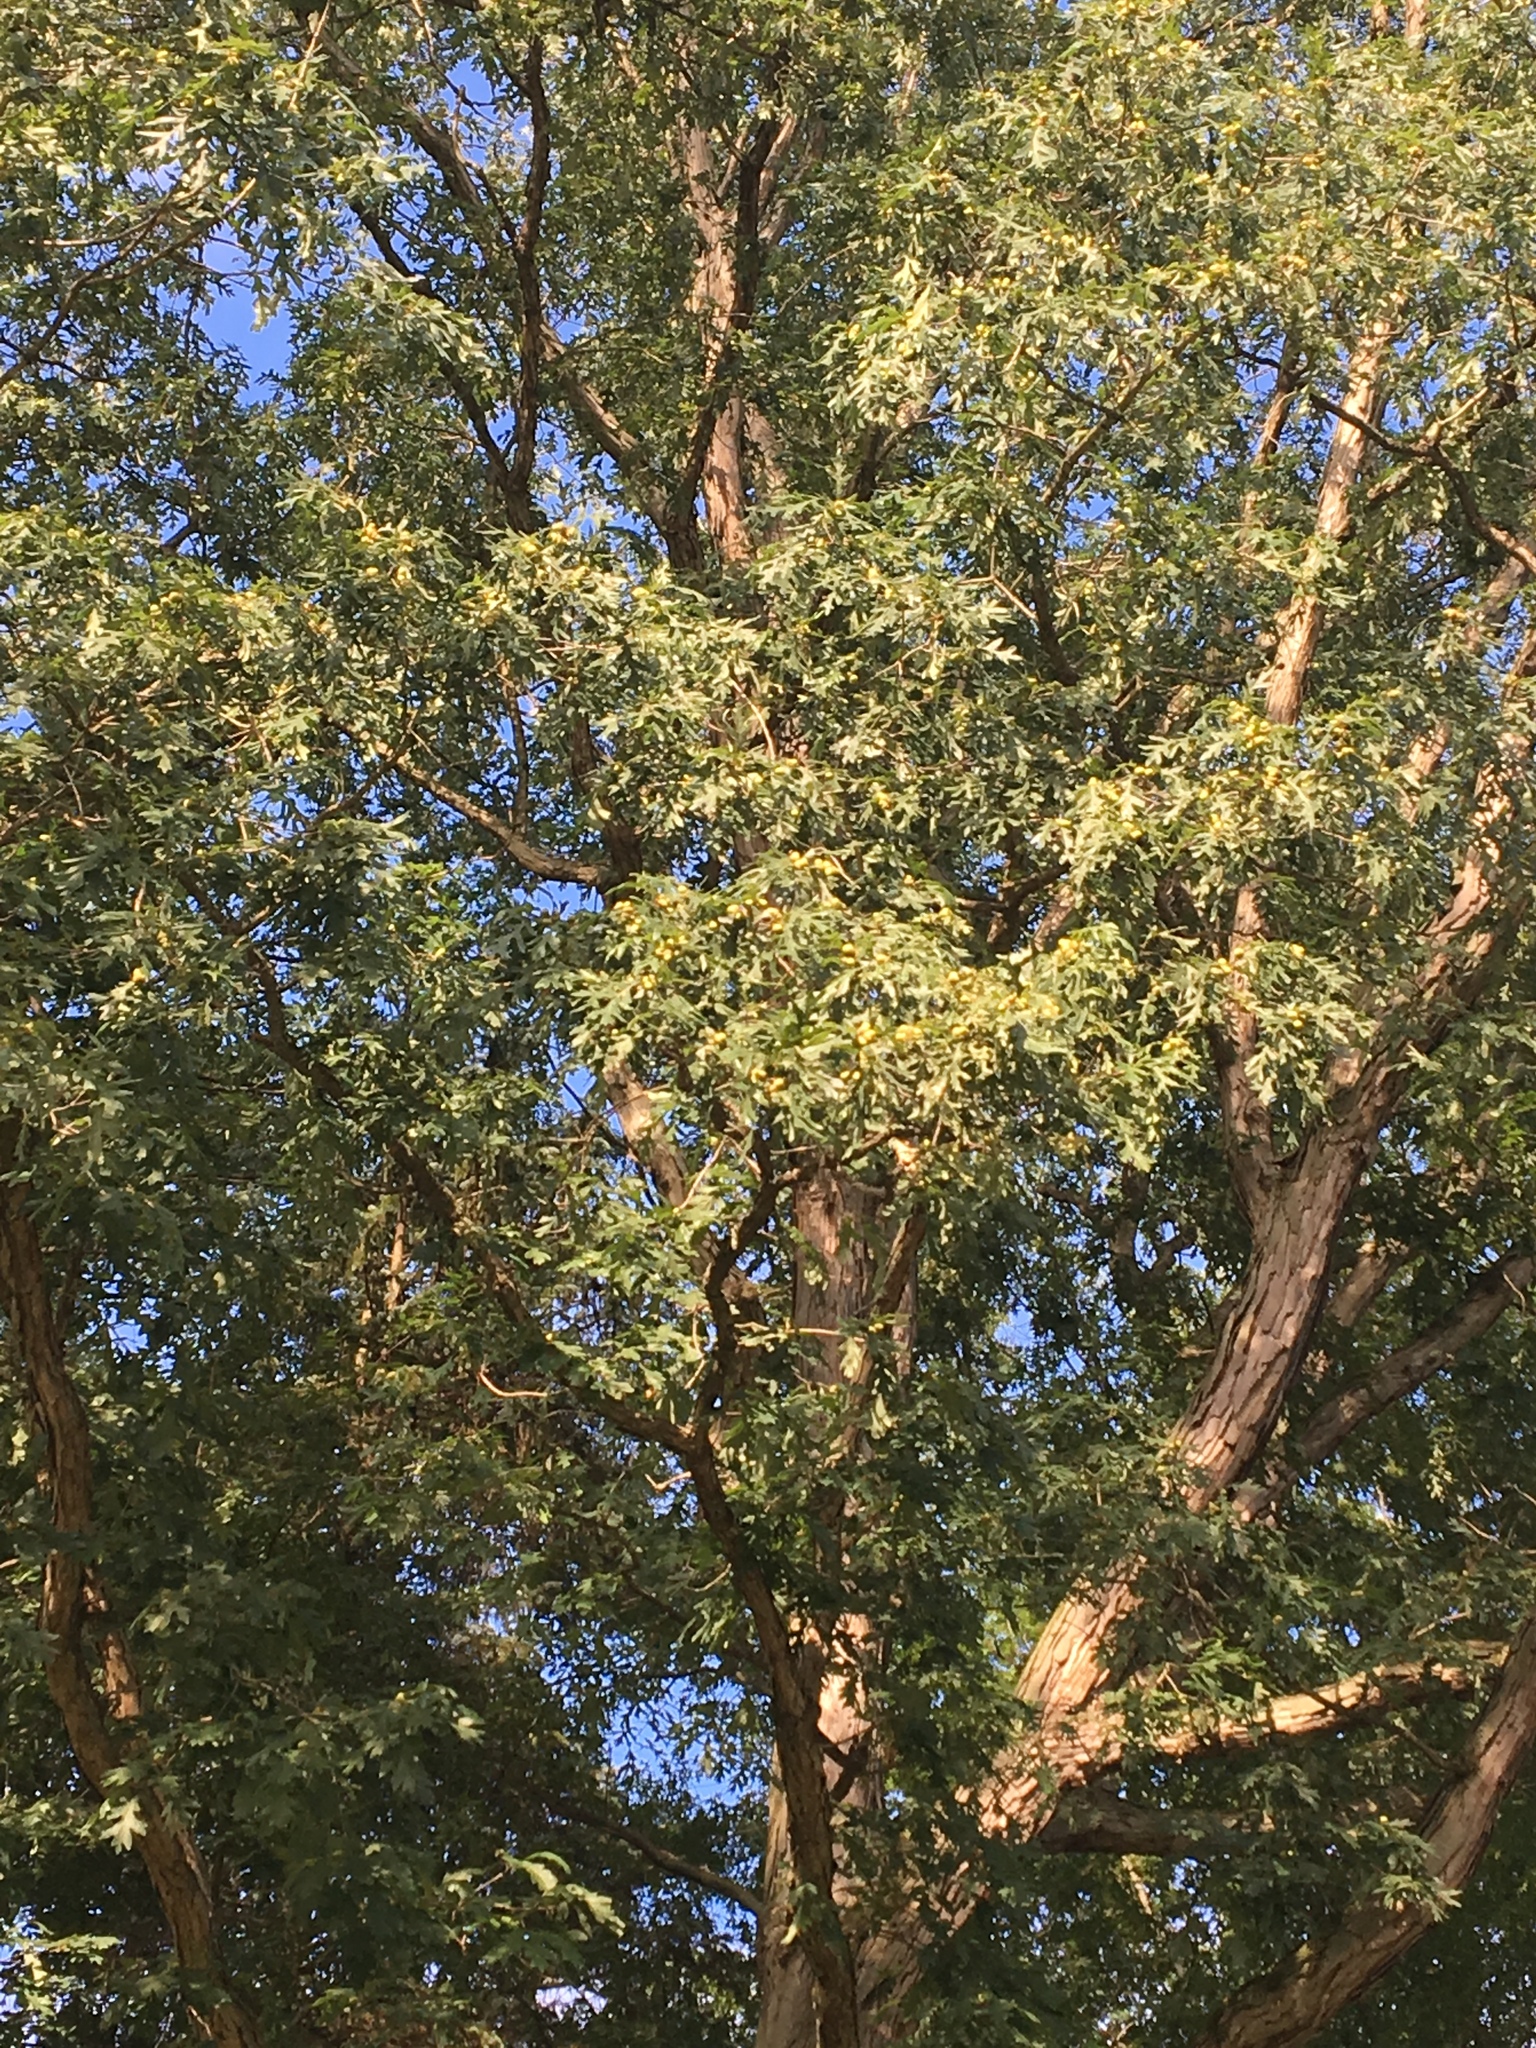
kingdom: Plantae
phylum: Tracheophyta
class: Magnoliopsida
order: Fagales
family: Fagaceae
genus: Quercus
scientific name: Quercus alba
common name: White oak
